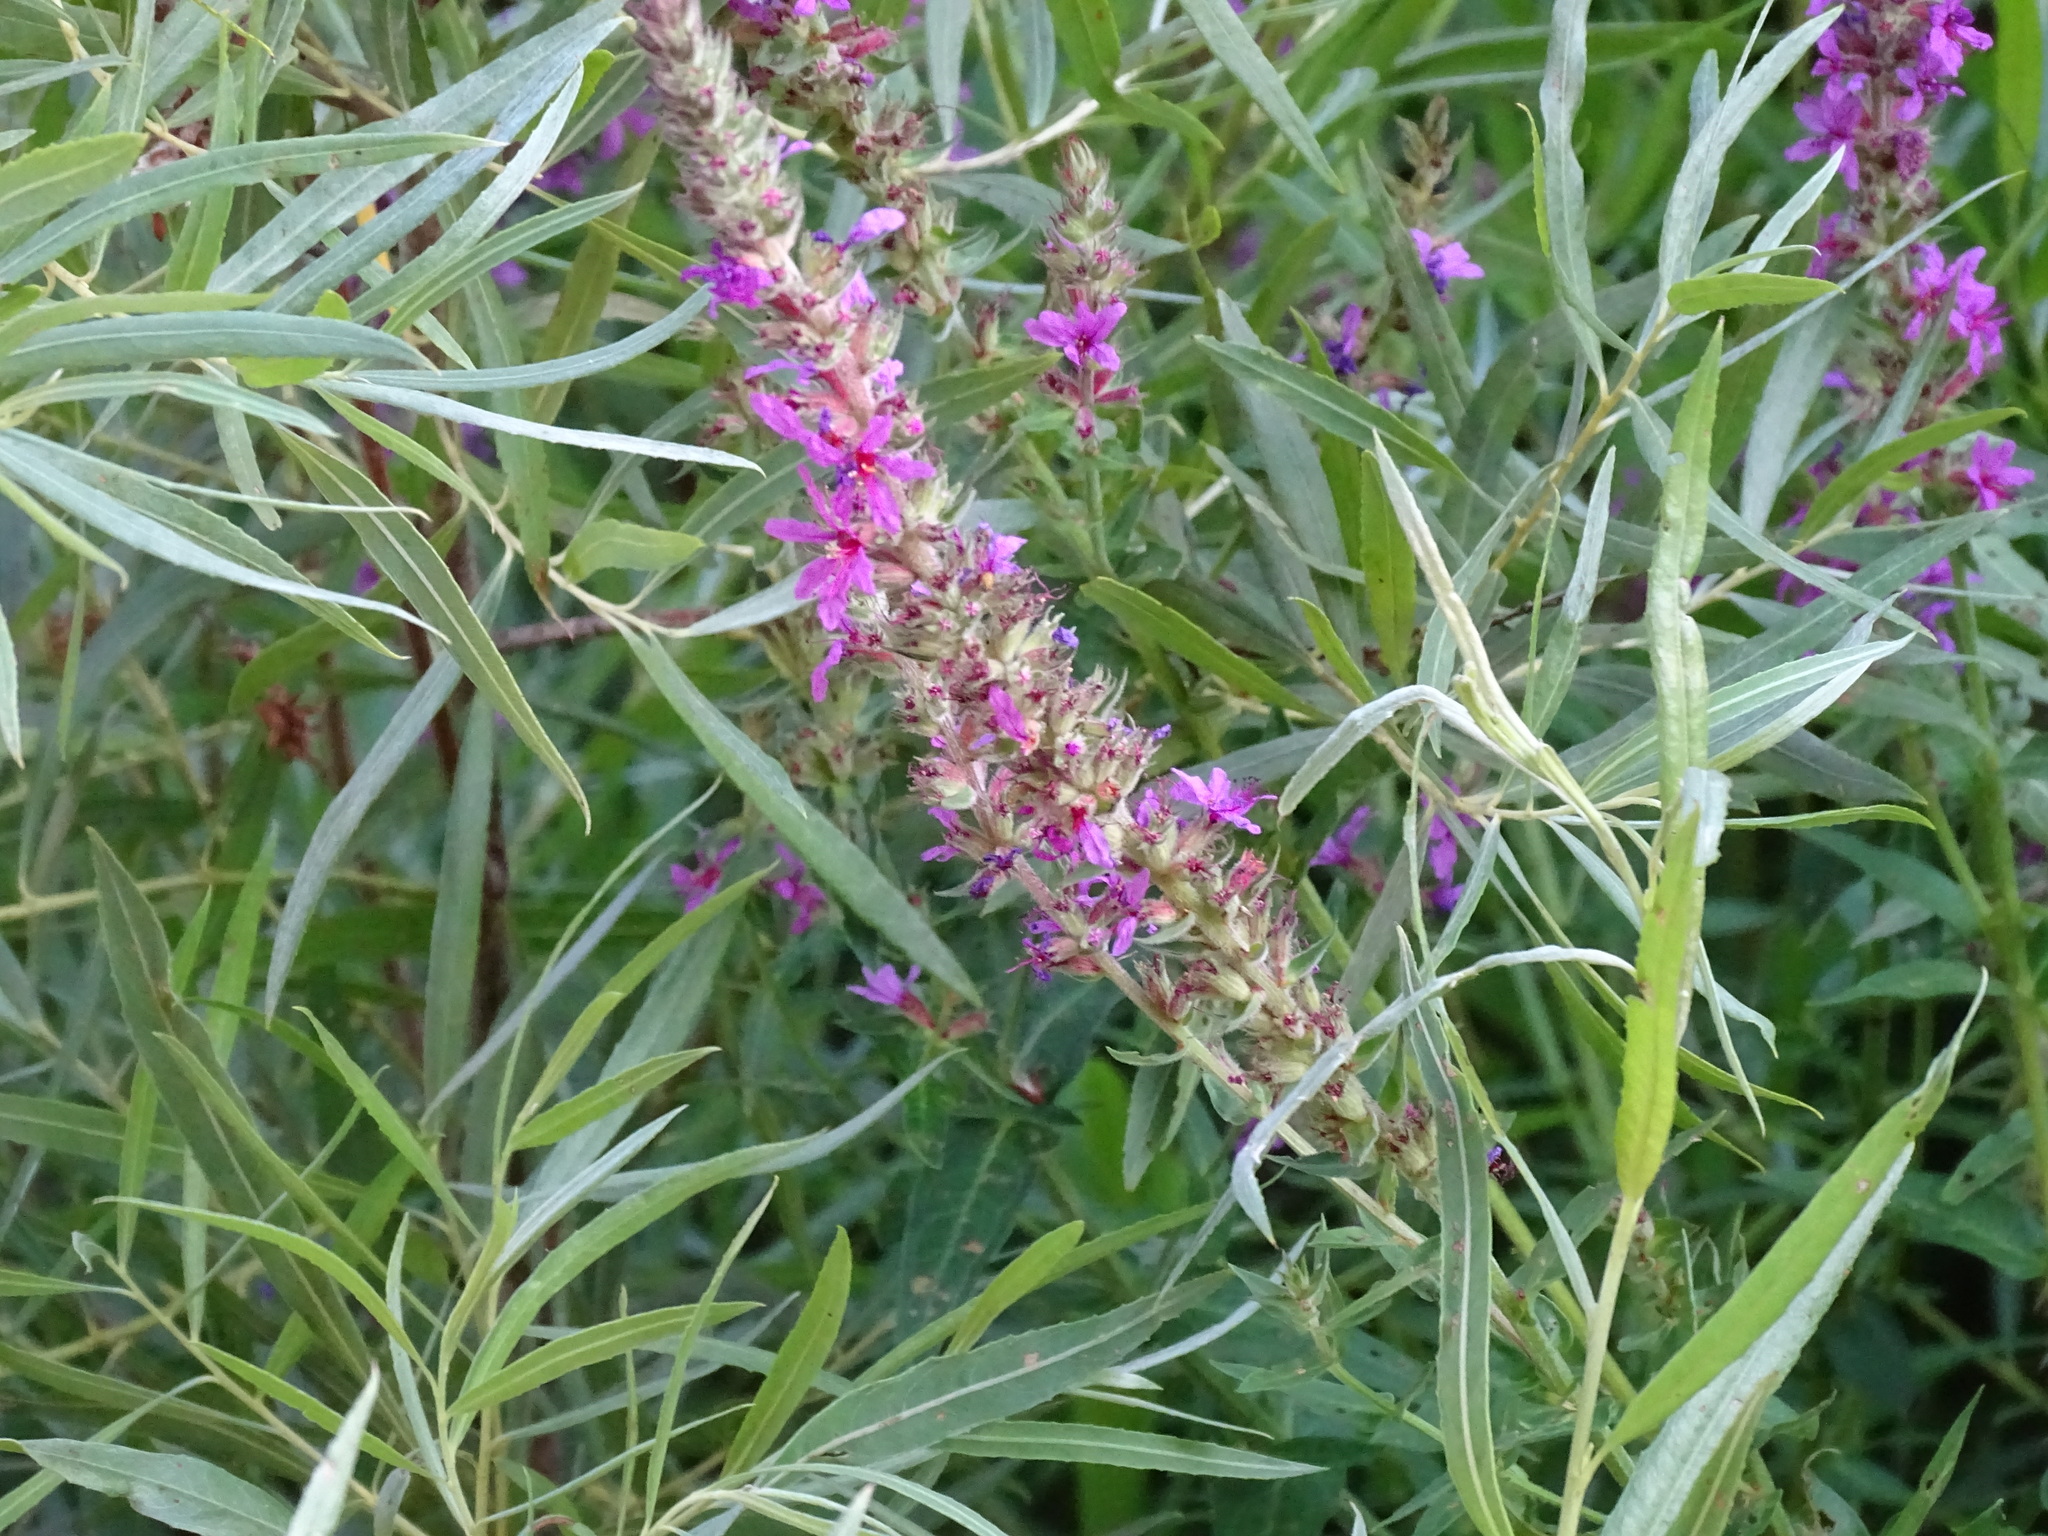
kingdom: Plantae
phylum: Tracheophyta
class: Magnoliopsida
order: Myrtales
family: Lythraceae
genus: Lythrum
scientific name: Lythrum salicaria
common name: Purple loosestrife
